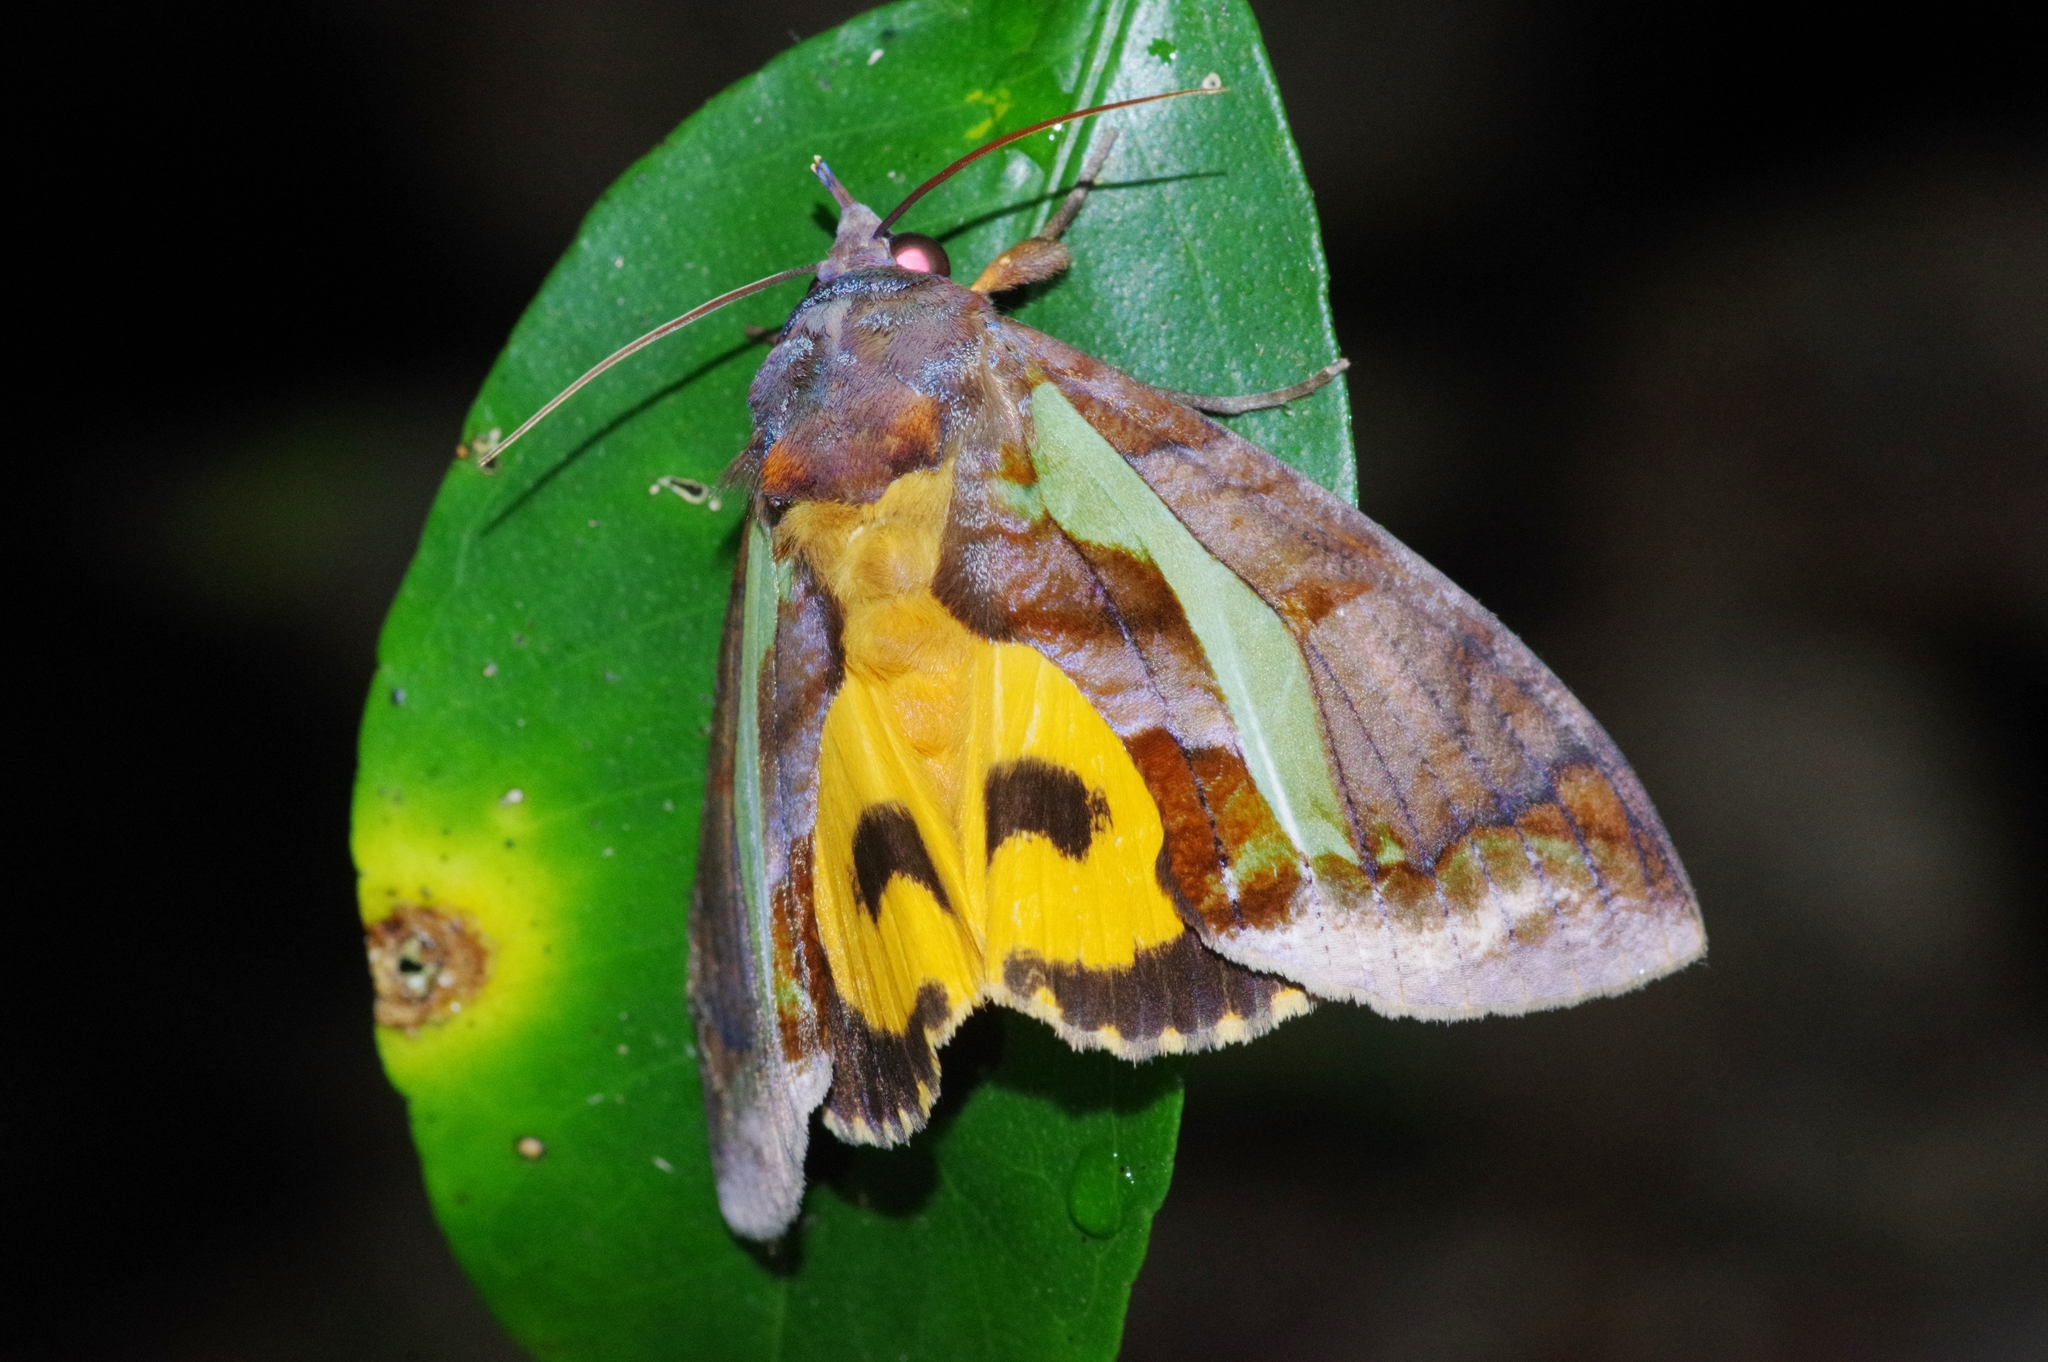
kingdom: Animalia
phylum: Arthropoda
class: Insecta
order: Lepidoptera
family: Erebidae
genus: Eudocima
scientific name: Eudocima homaena
